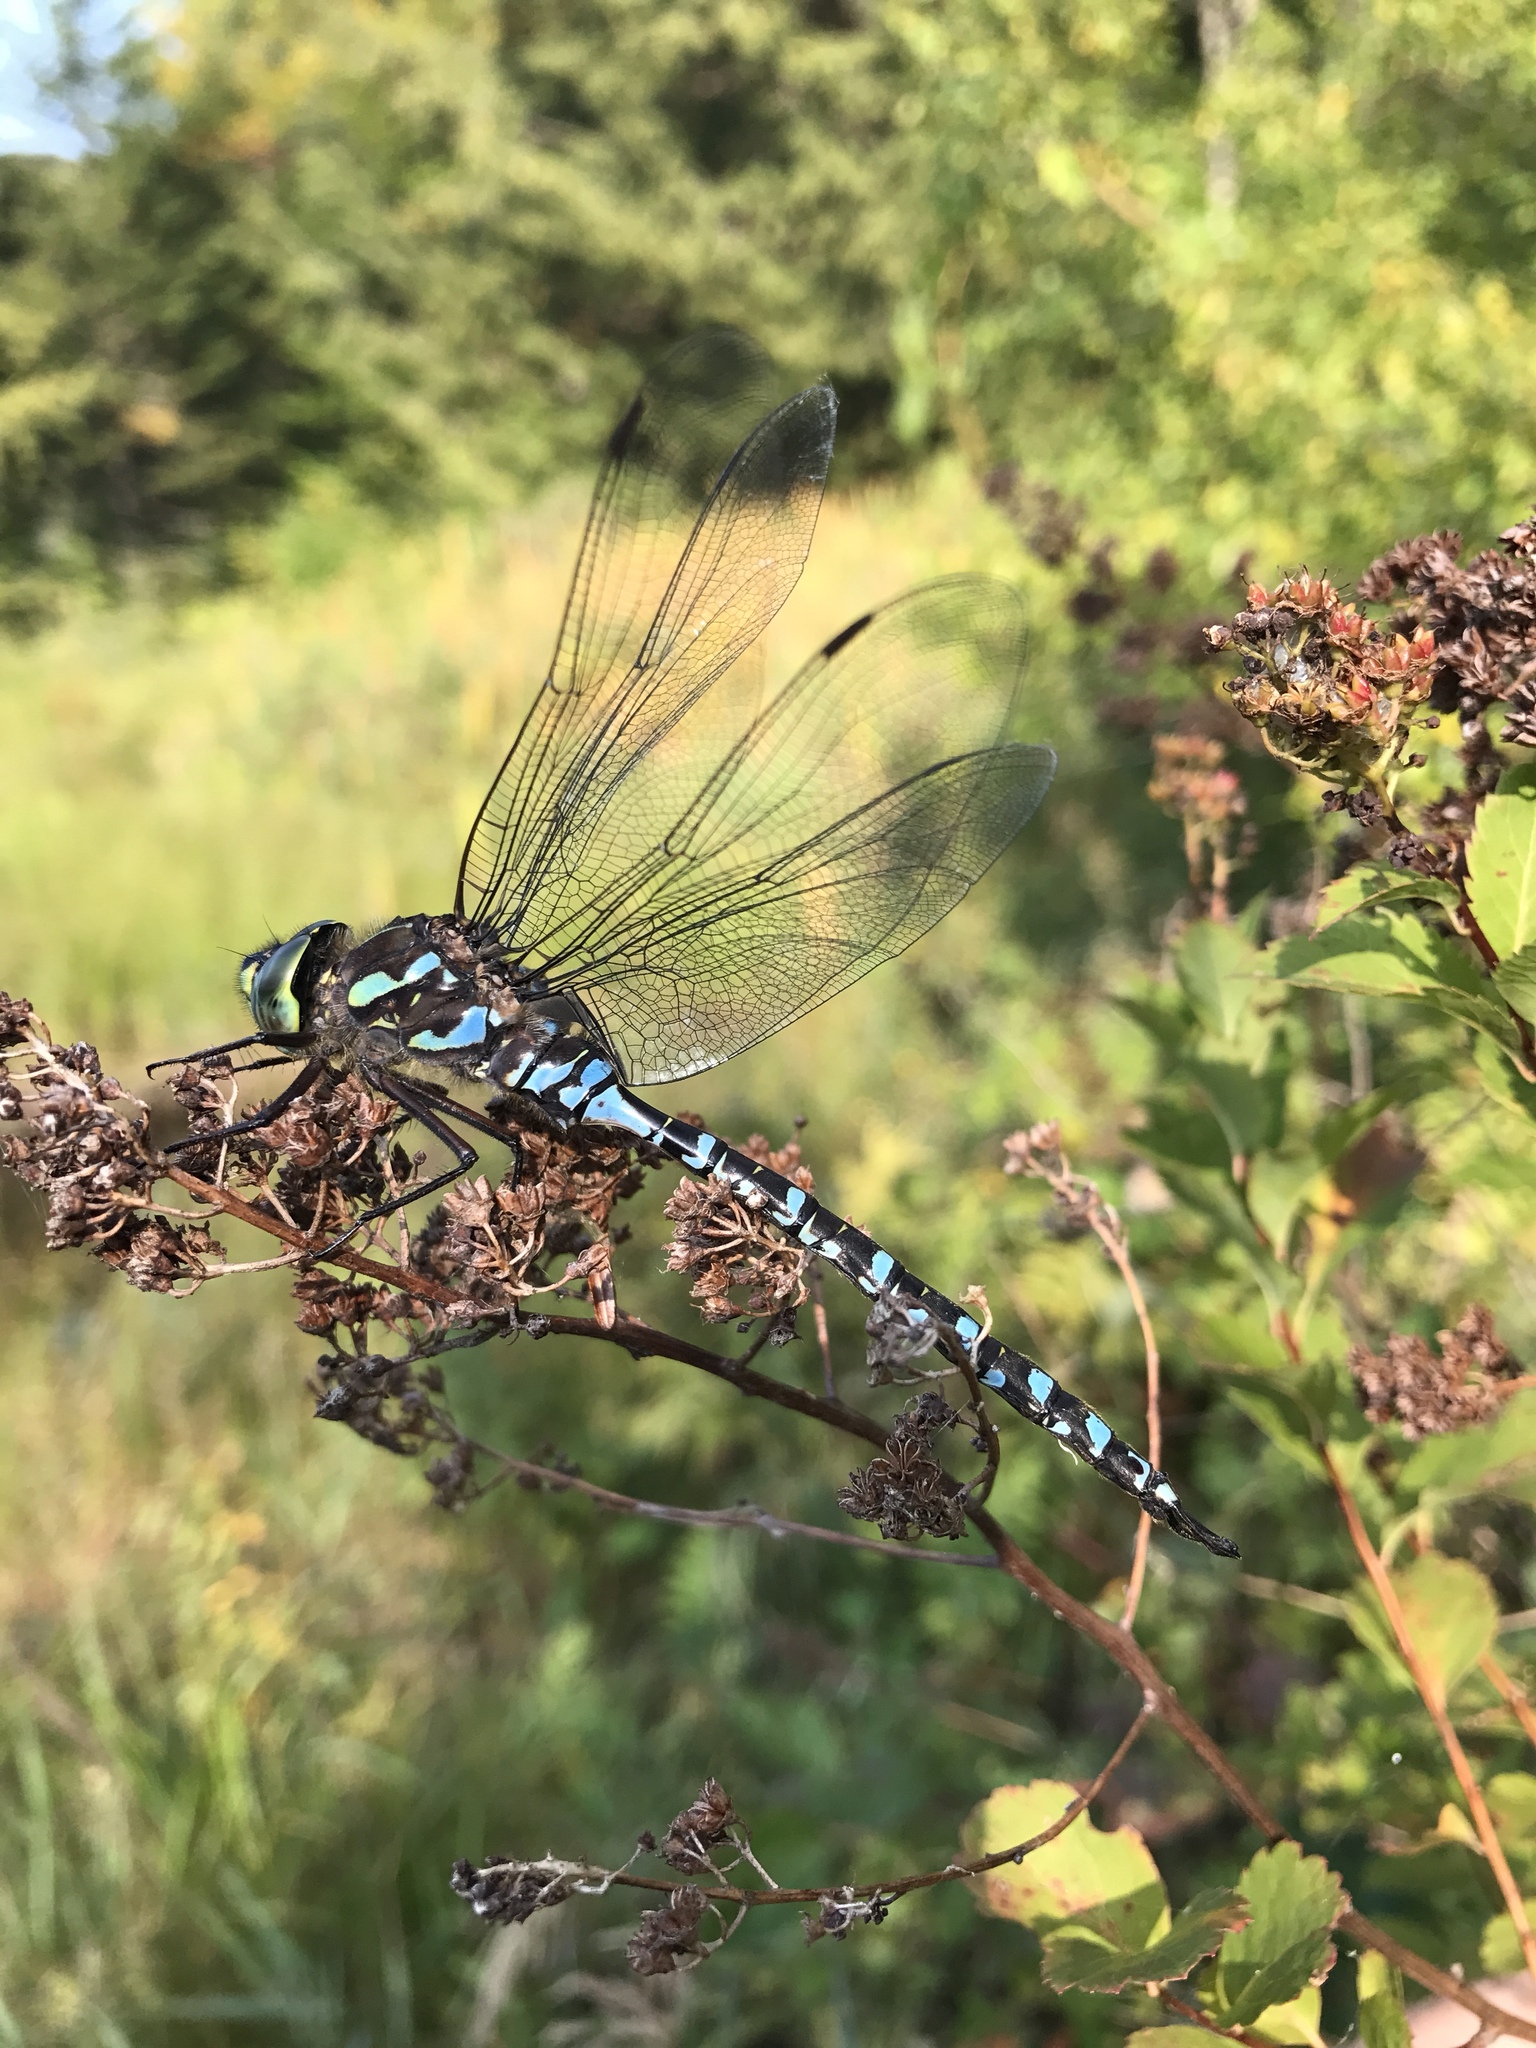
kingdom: Animalia
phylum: Arthropoda
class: Insecta
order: Odonata
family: Aeshnidae
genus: Aeshna
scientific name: Aeshna eremita
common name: Lake darner
